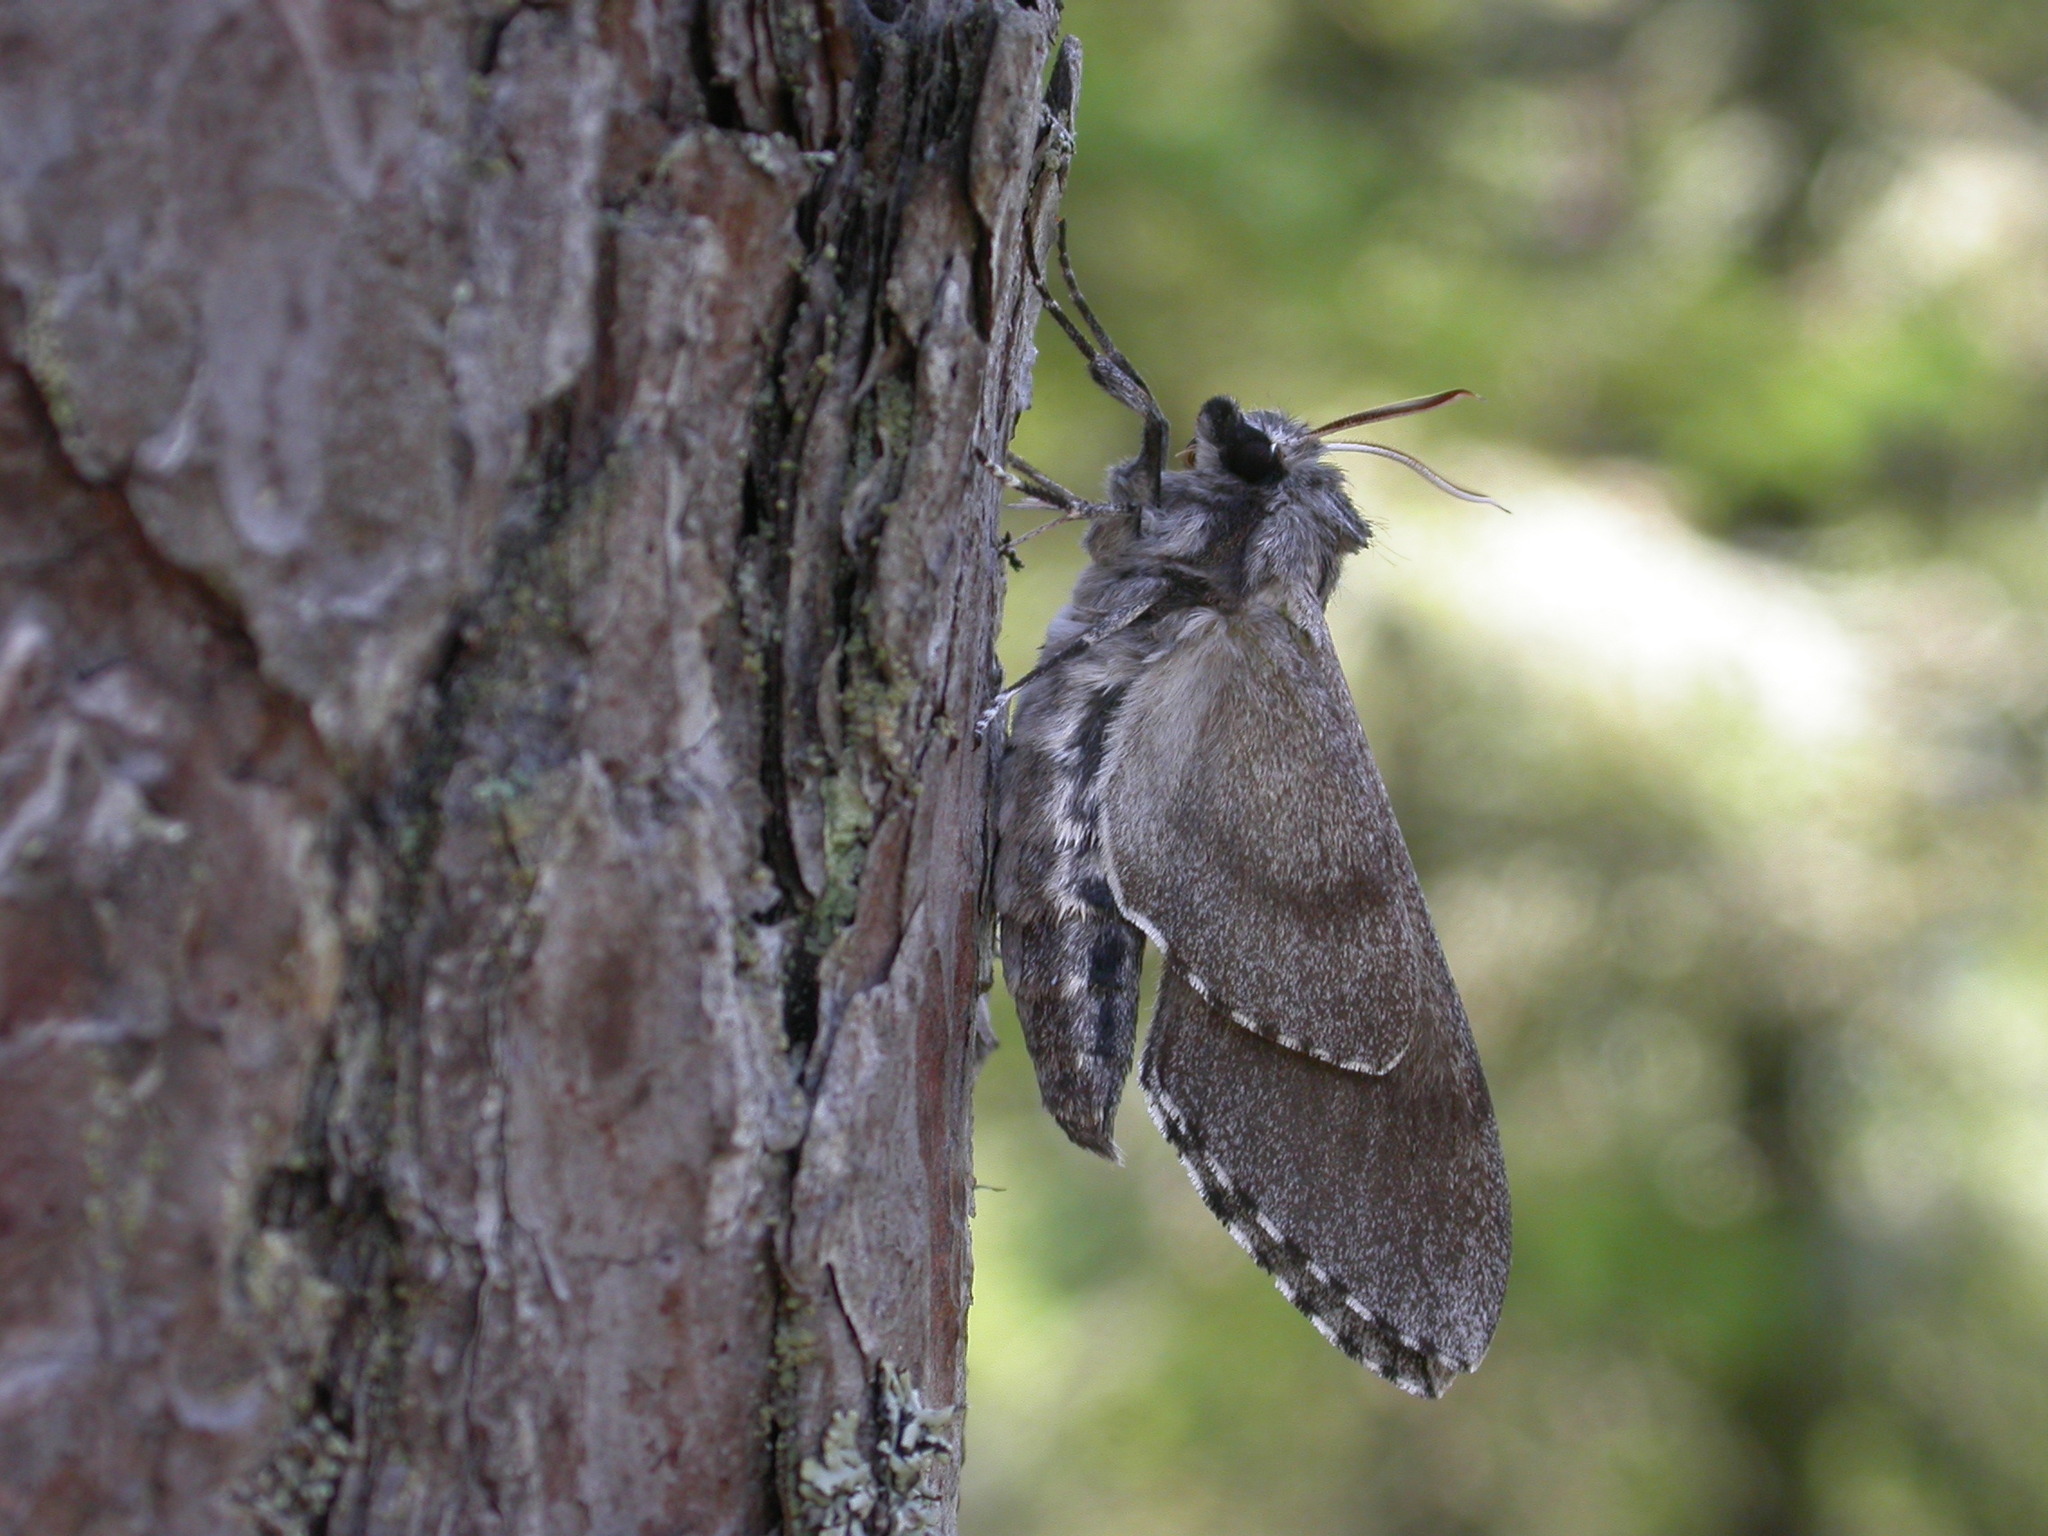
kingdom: Animalia
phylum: Arthropoda
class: Insecta
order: Lepidoptera
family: Sphingidae
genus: Sphinx
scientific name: Sphinx pinastri
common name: Pine hawk-moth
